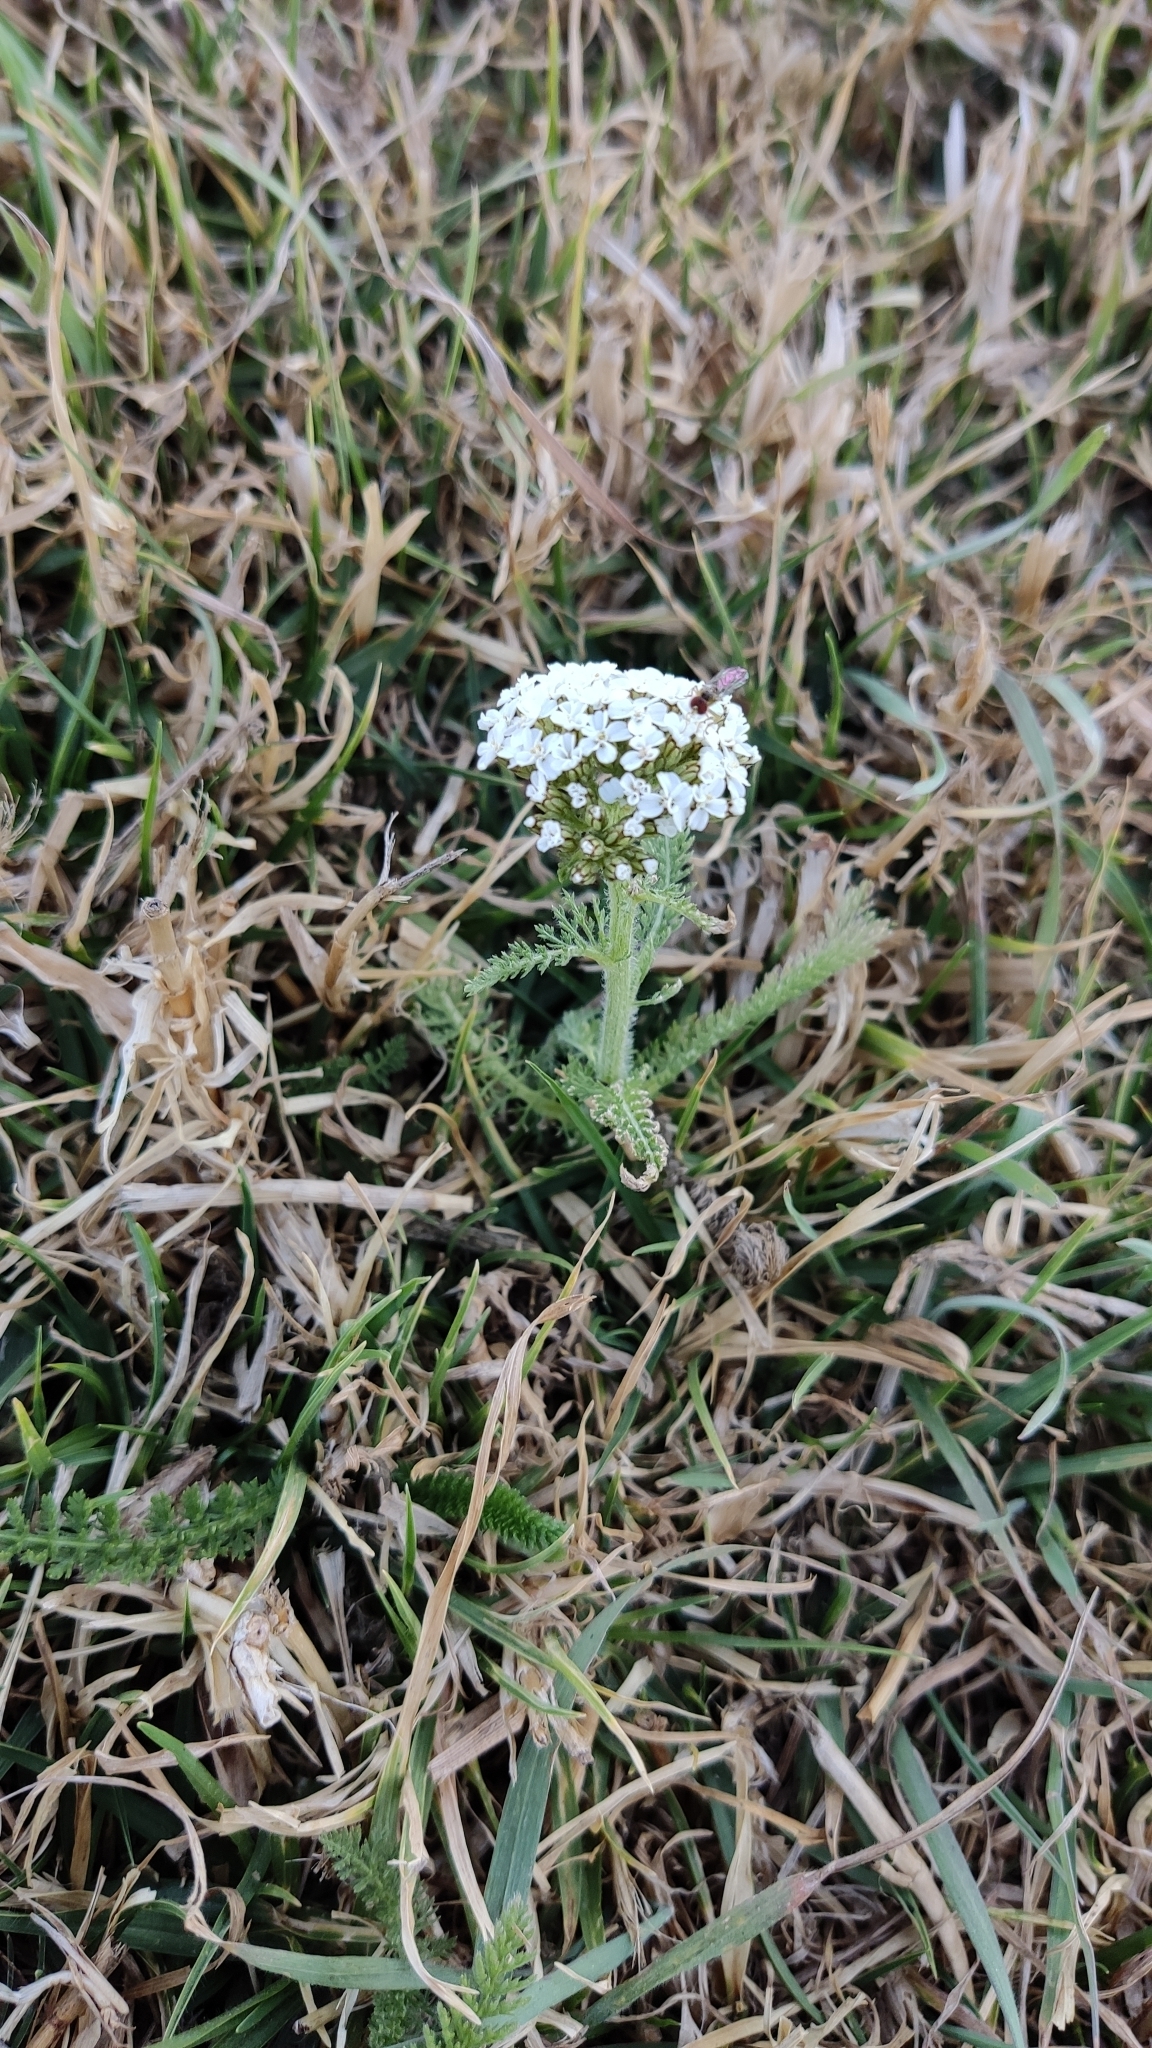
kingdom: Plantae
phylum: Tracheophyta
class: Magnoliopsida
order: Asterales
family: Asteraceae
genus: Achillea
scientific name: Achillea millefolium
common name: Yarrow
